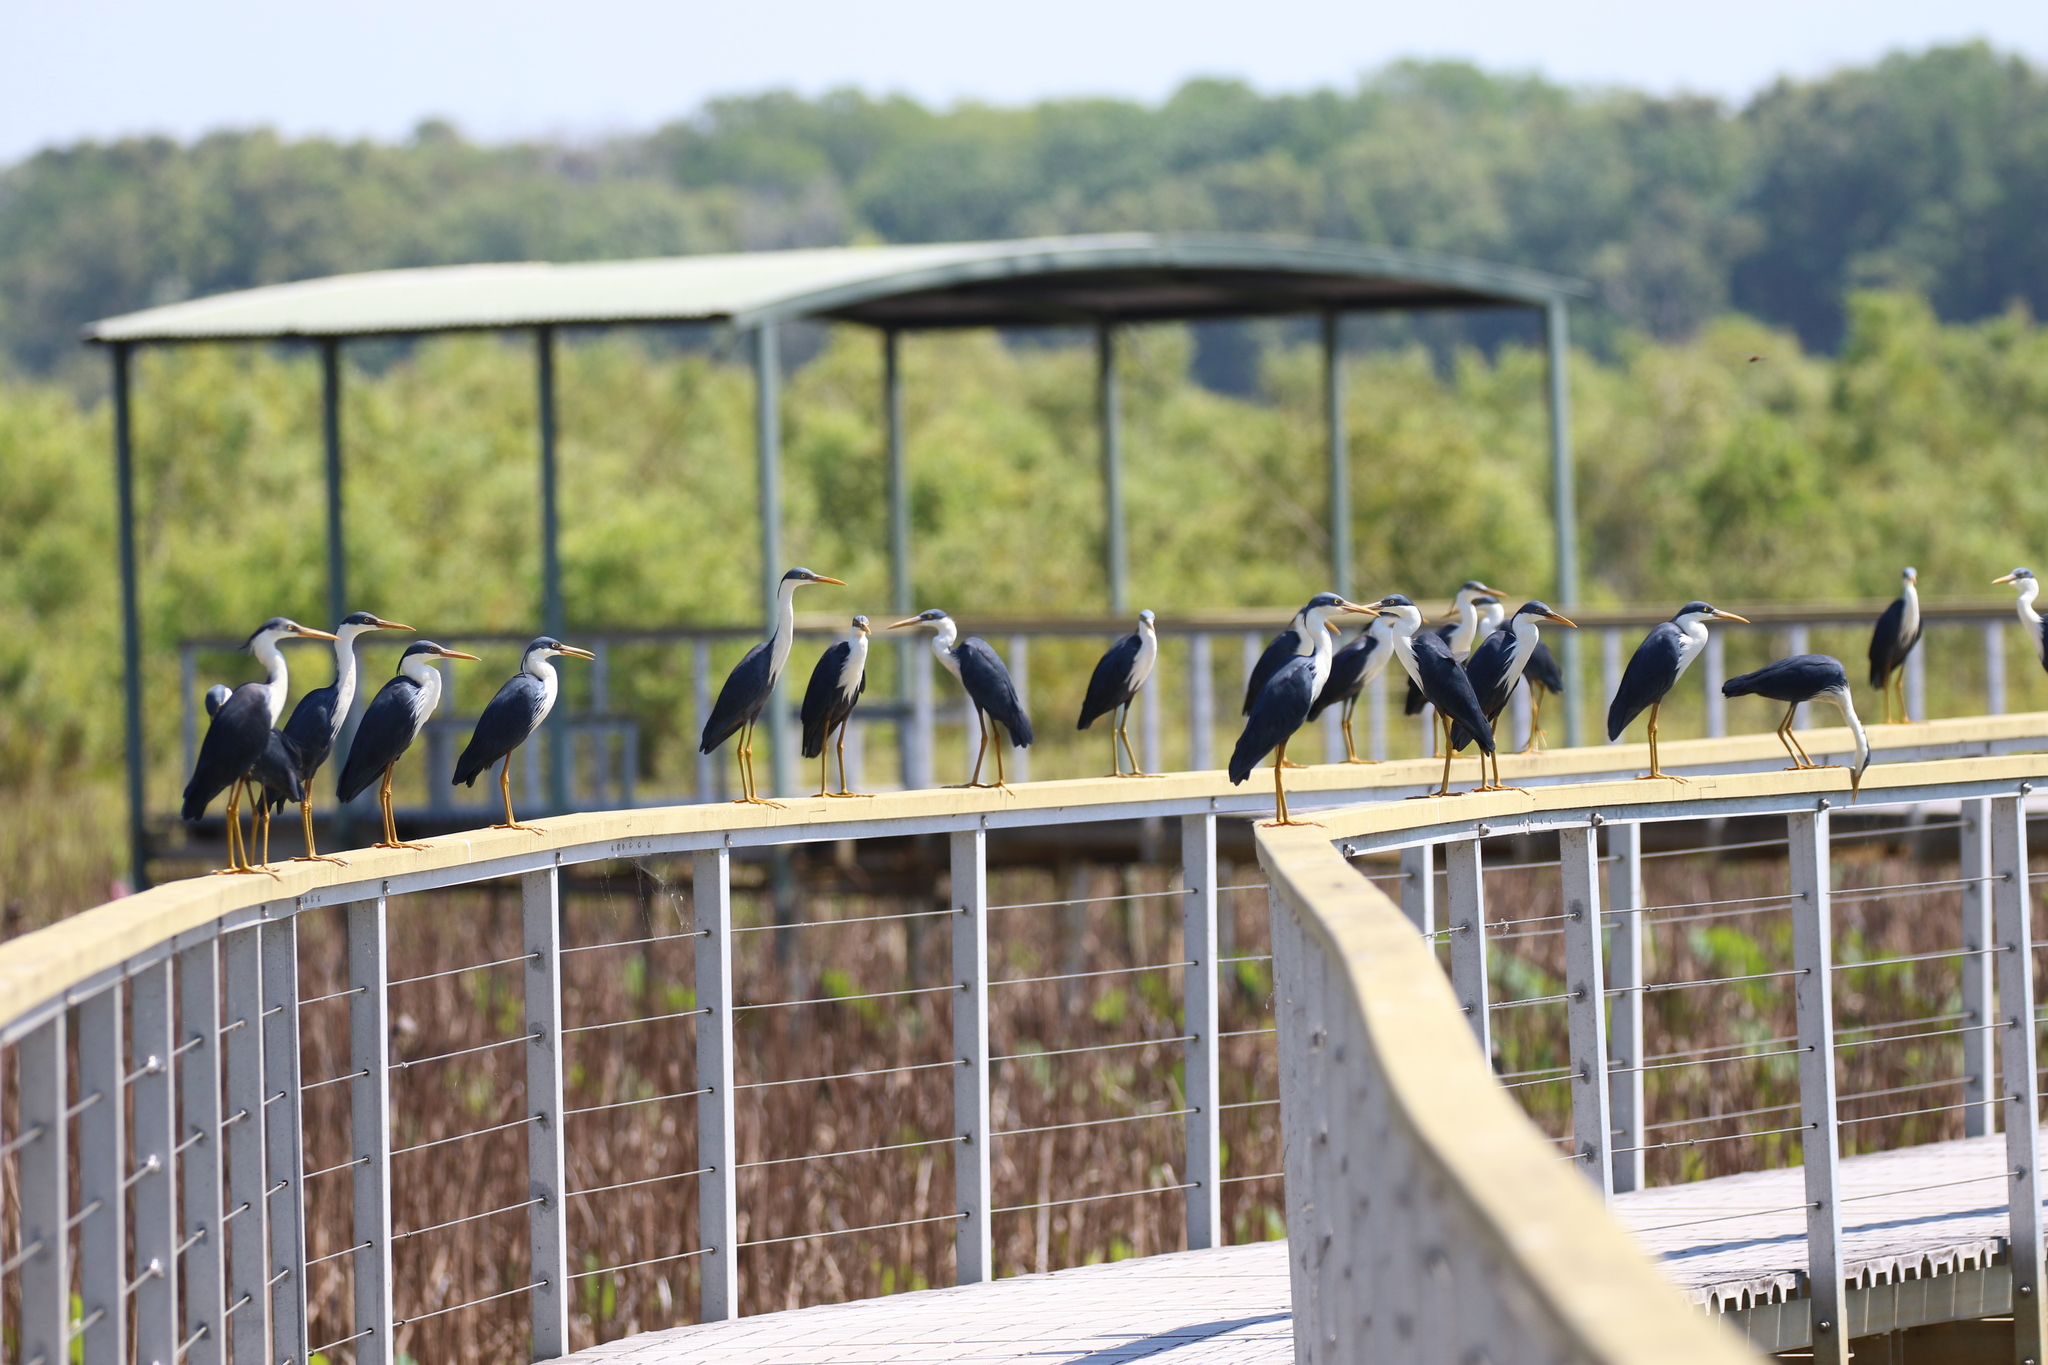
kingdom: Animalia
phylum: Chordata
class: Aves
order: Pelecaniformes
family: Ardeidae
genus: Egretta
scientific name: Egretta picata
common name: Pied heron
